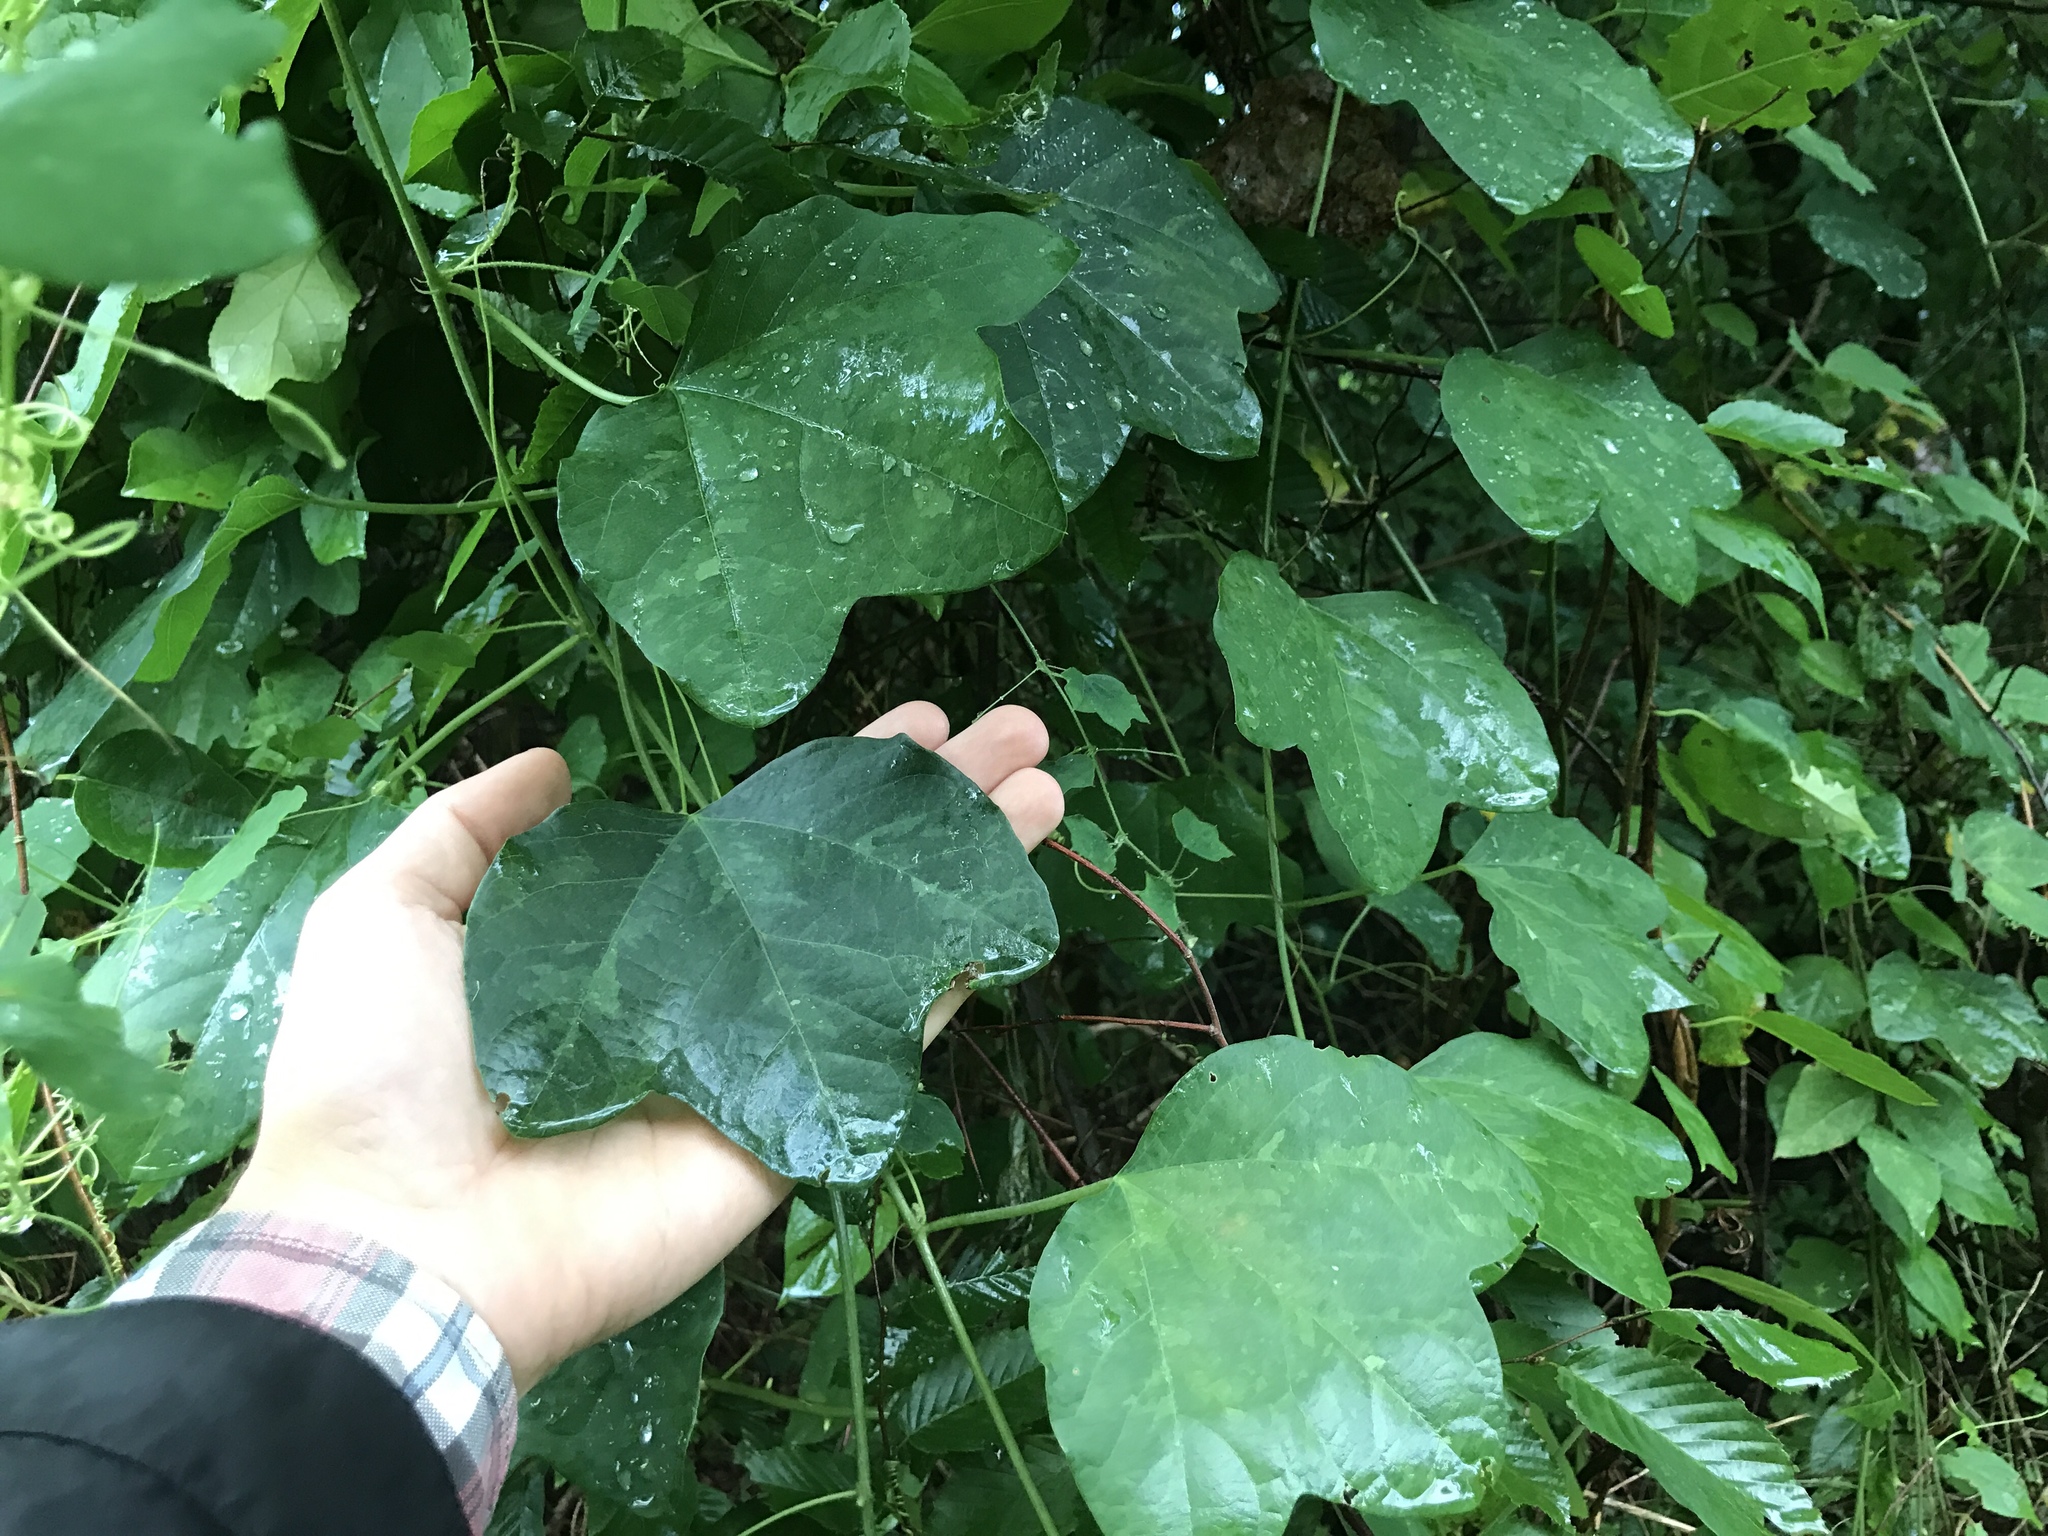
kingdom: Plantae
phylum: Tracheophyta
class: Magnoliopsida
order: Malpighiales
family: Passifloraceae
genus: Passiflora
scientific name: Passiflora lutea
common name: Yellow passionflower
